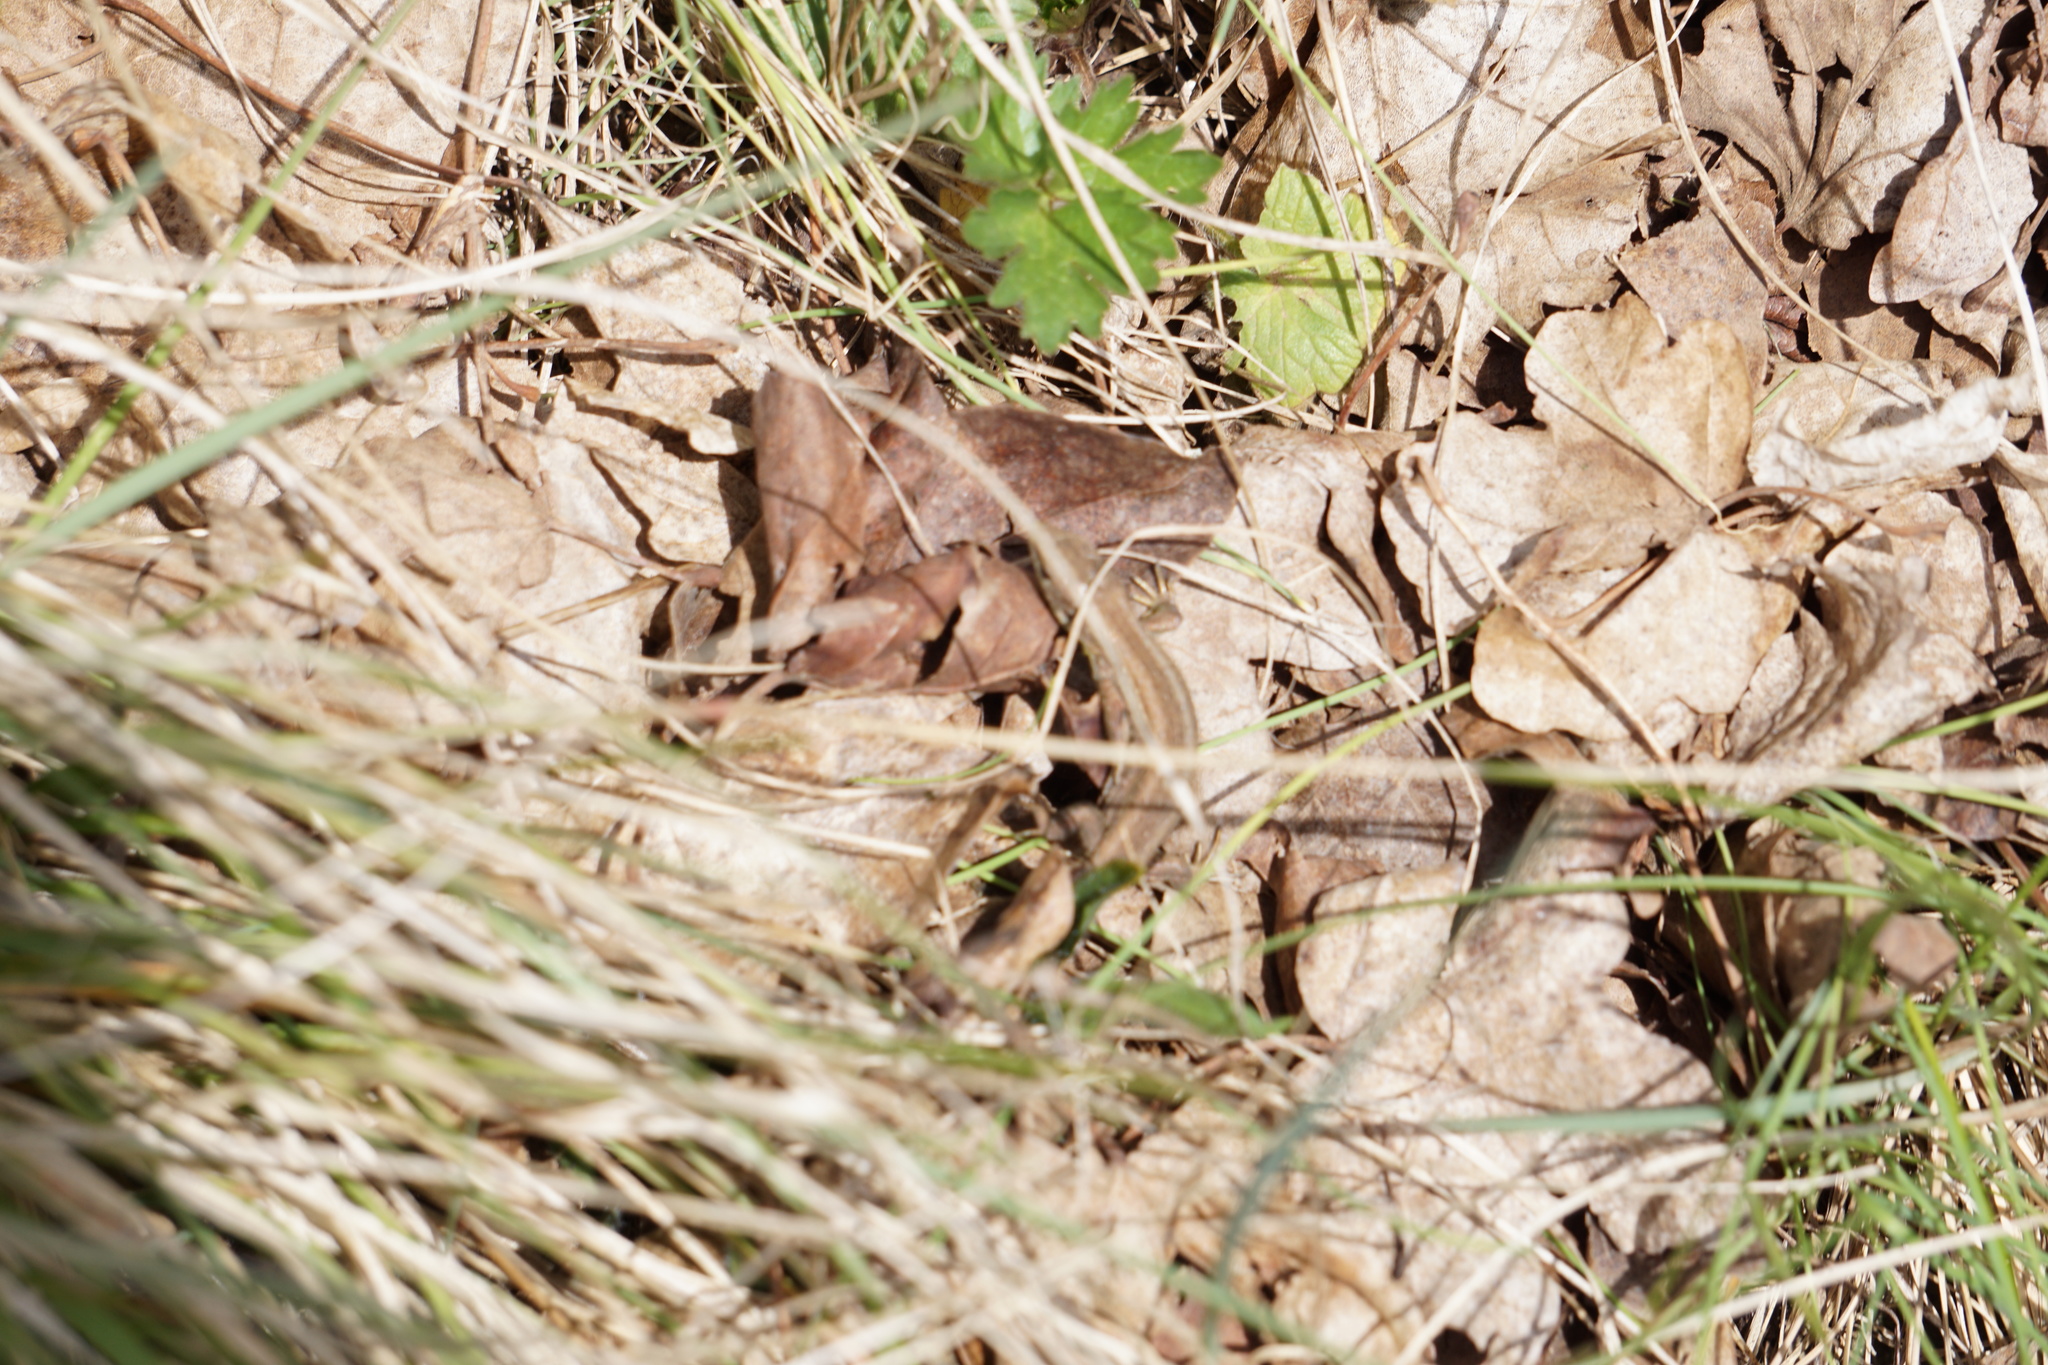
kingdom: Animalia
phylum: Chordata
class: Squamata
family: Lacertidae
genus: Lacerta
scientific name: Lacerta agilis
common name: Sand lizard
